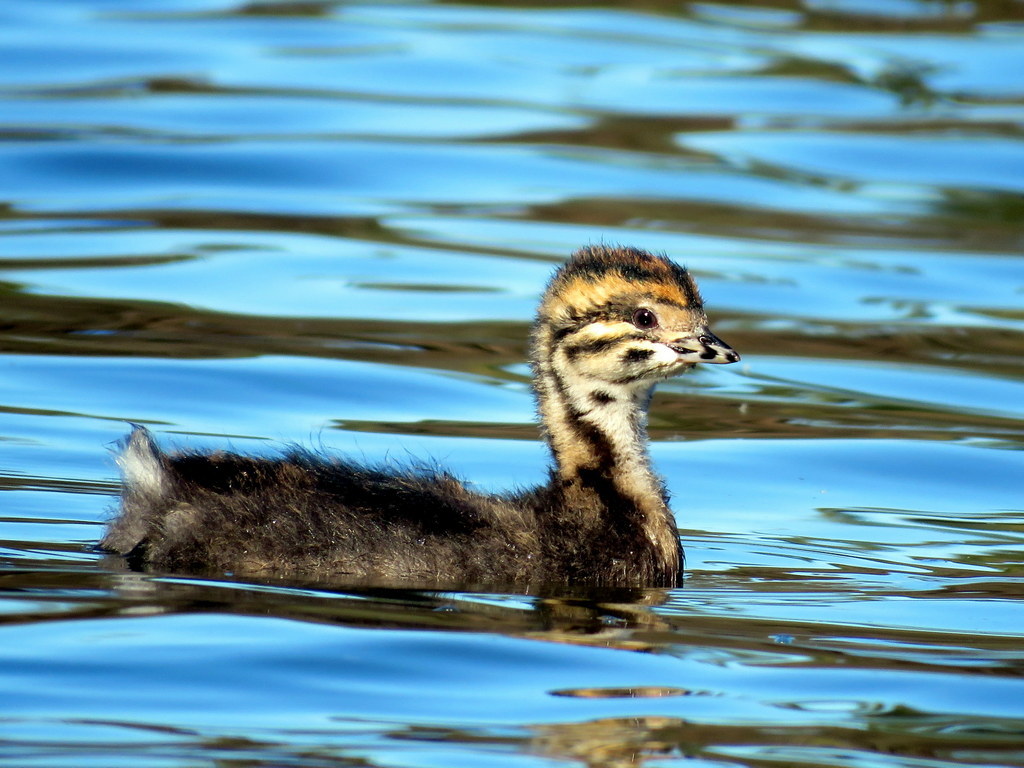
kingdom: Animalia
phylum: Chordata
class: Aves
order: Podicipediformes
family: Podicipedidae
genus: Rollandia
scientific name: Rollandia rolland
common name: White-tufted grebe
